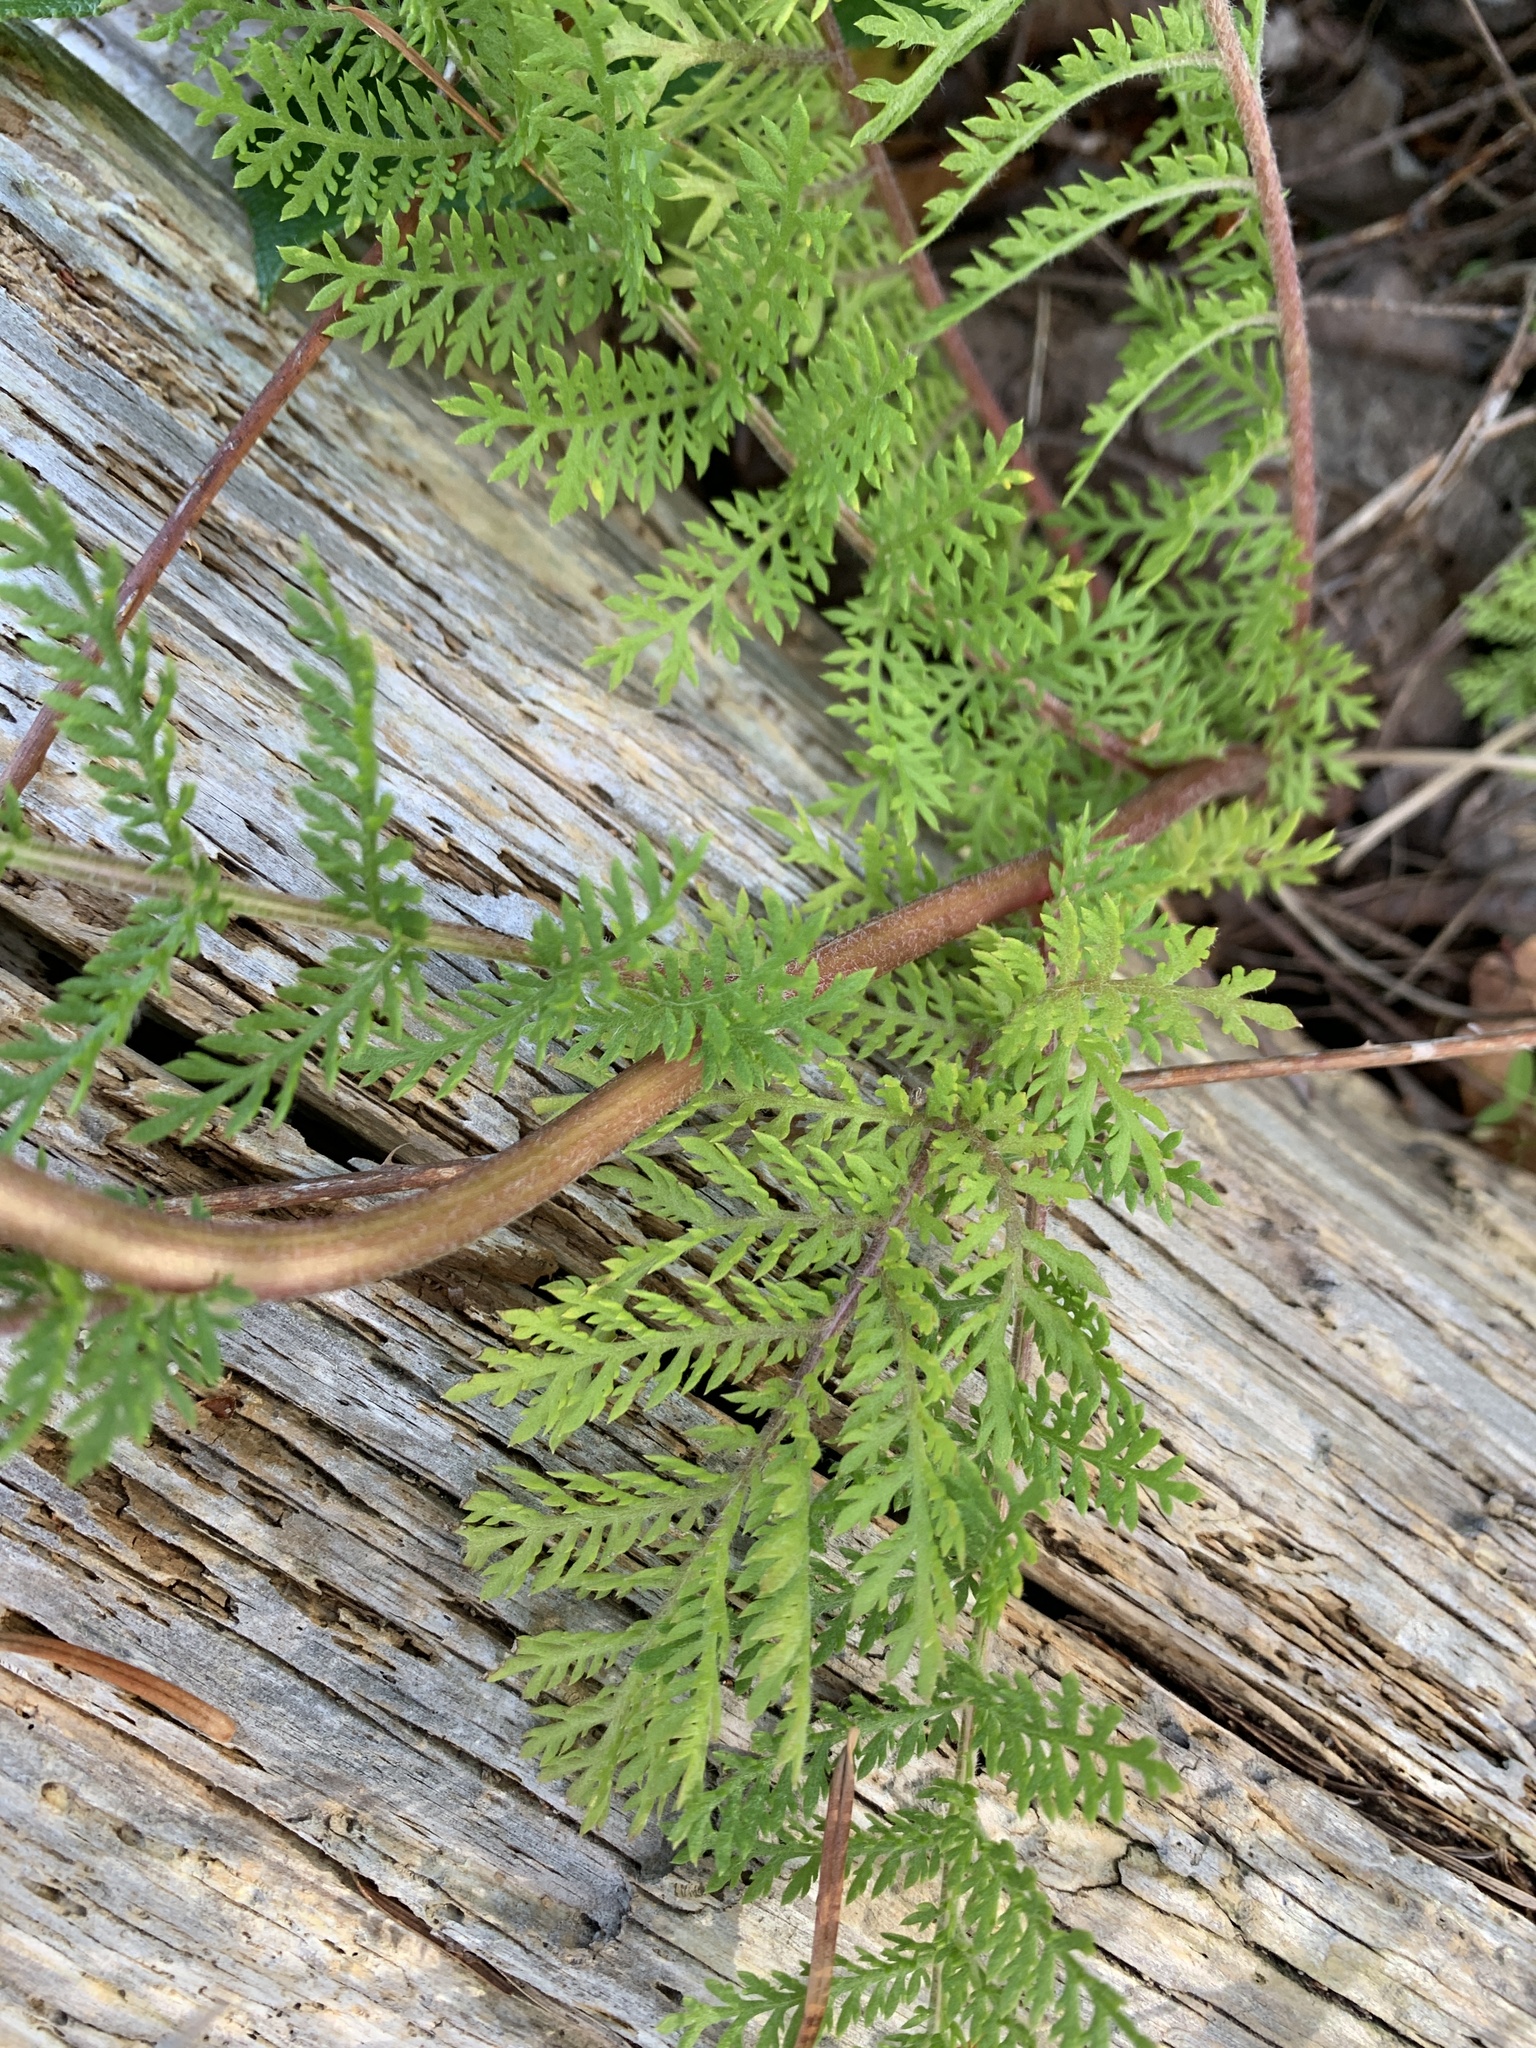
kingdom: Plantae
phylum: Tracheophyta
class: Magnoliopsida
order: Asterales
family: Asteraceae
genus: Tanacetum
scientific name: Tanacetum bipinnatum
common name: Dwarf tansy
